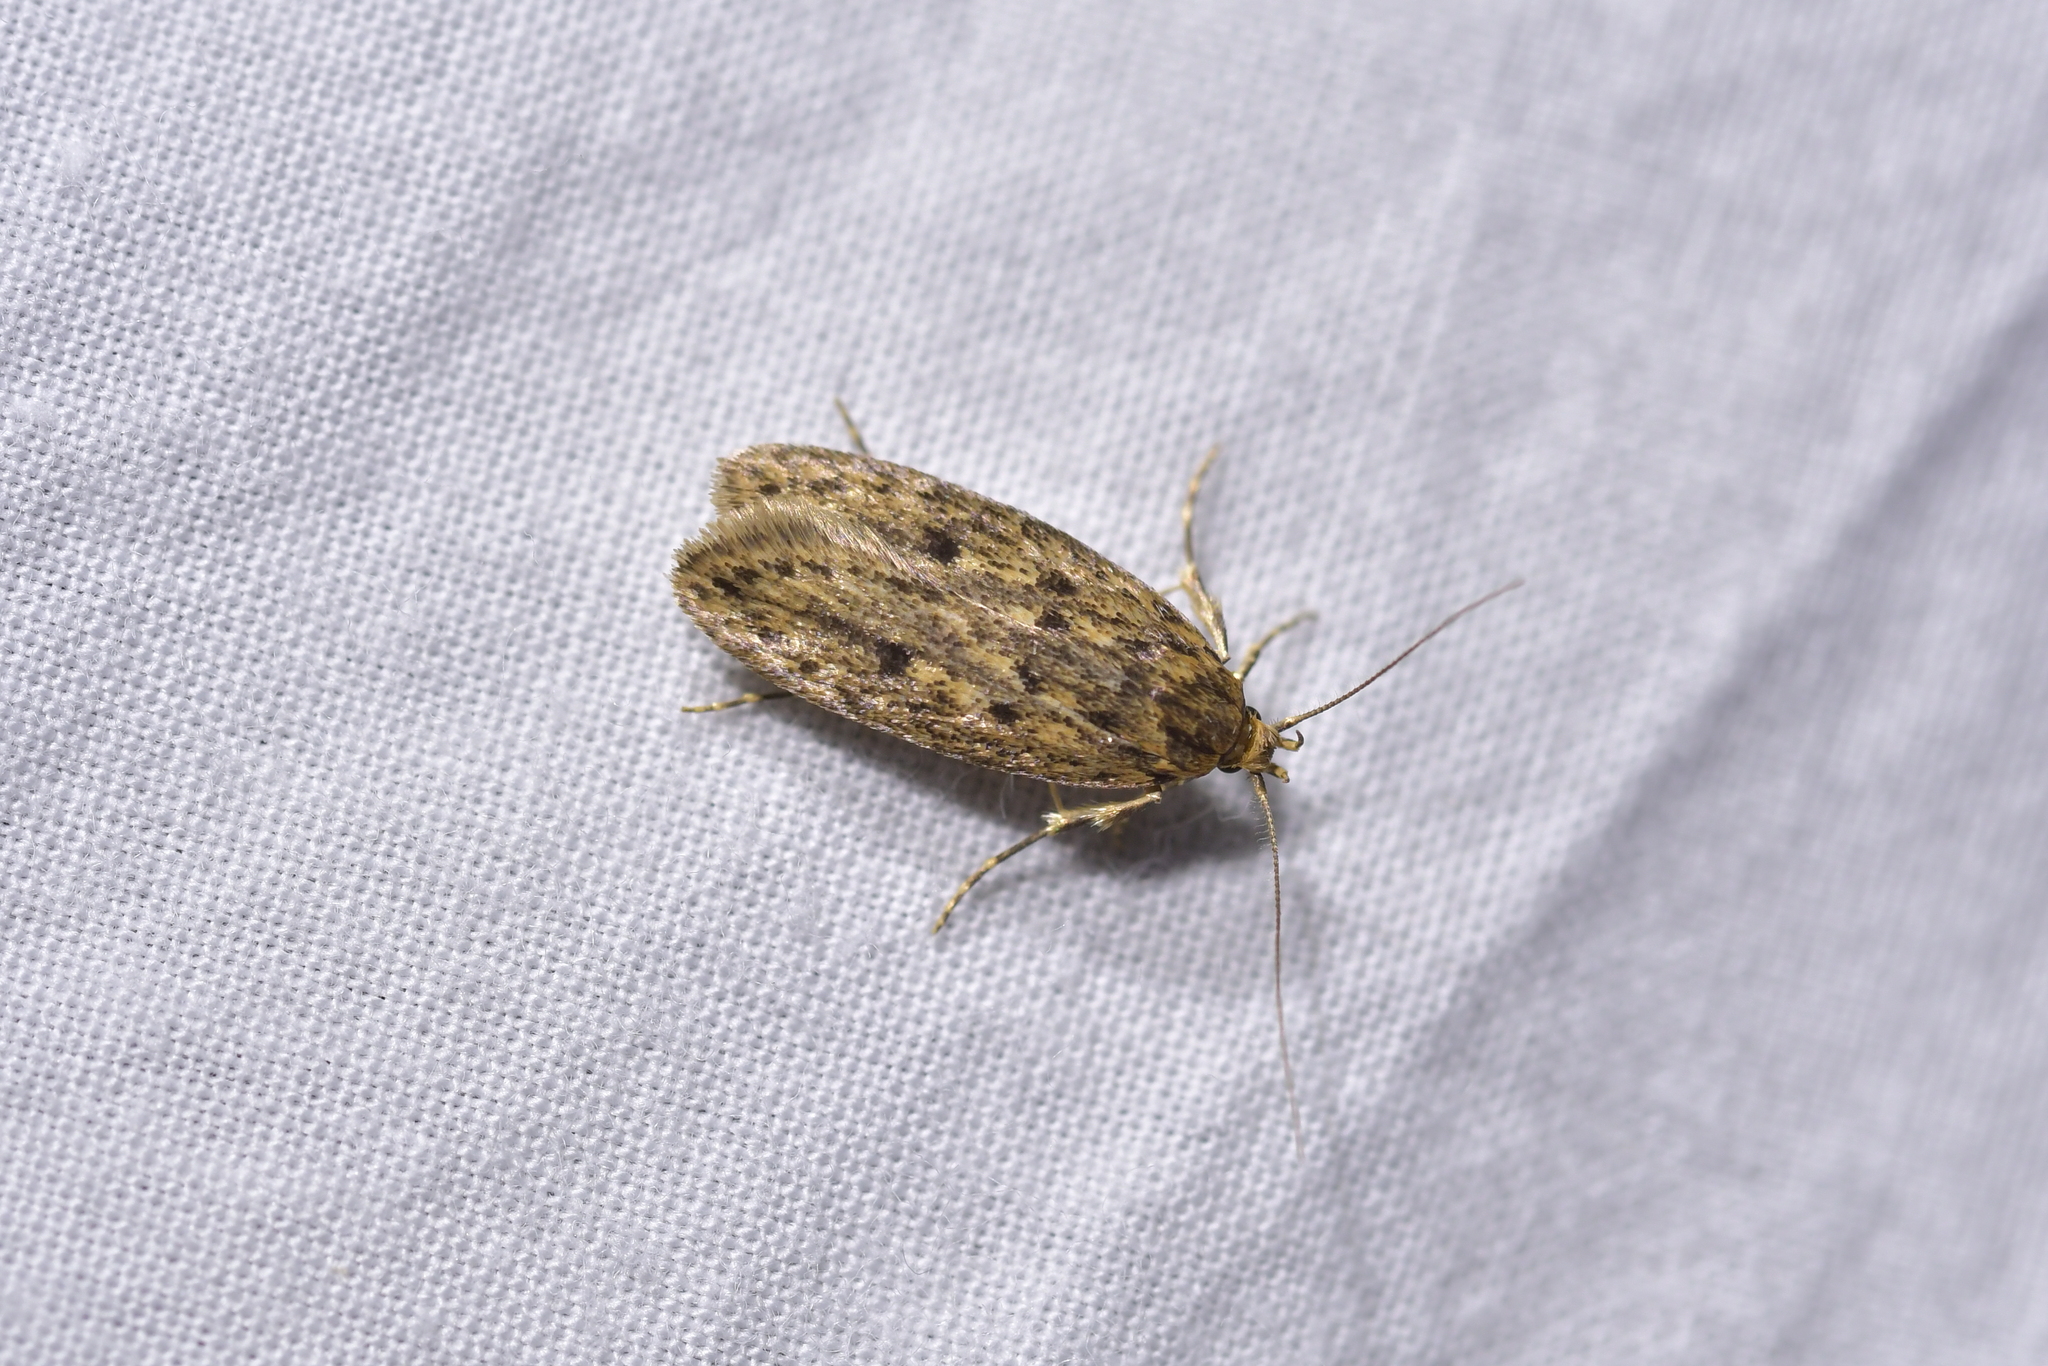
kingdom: Animalia
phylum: Arthropoda
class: Insecta
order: Lepidoptera
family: Oecophoridae
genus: Hofmannophila
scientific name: Hofmannophila pseudospretella
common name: Brown house moth
